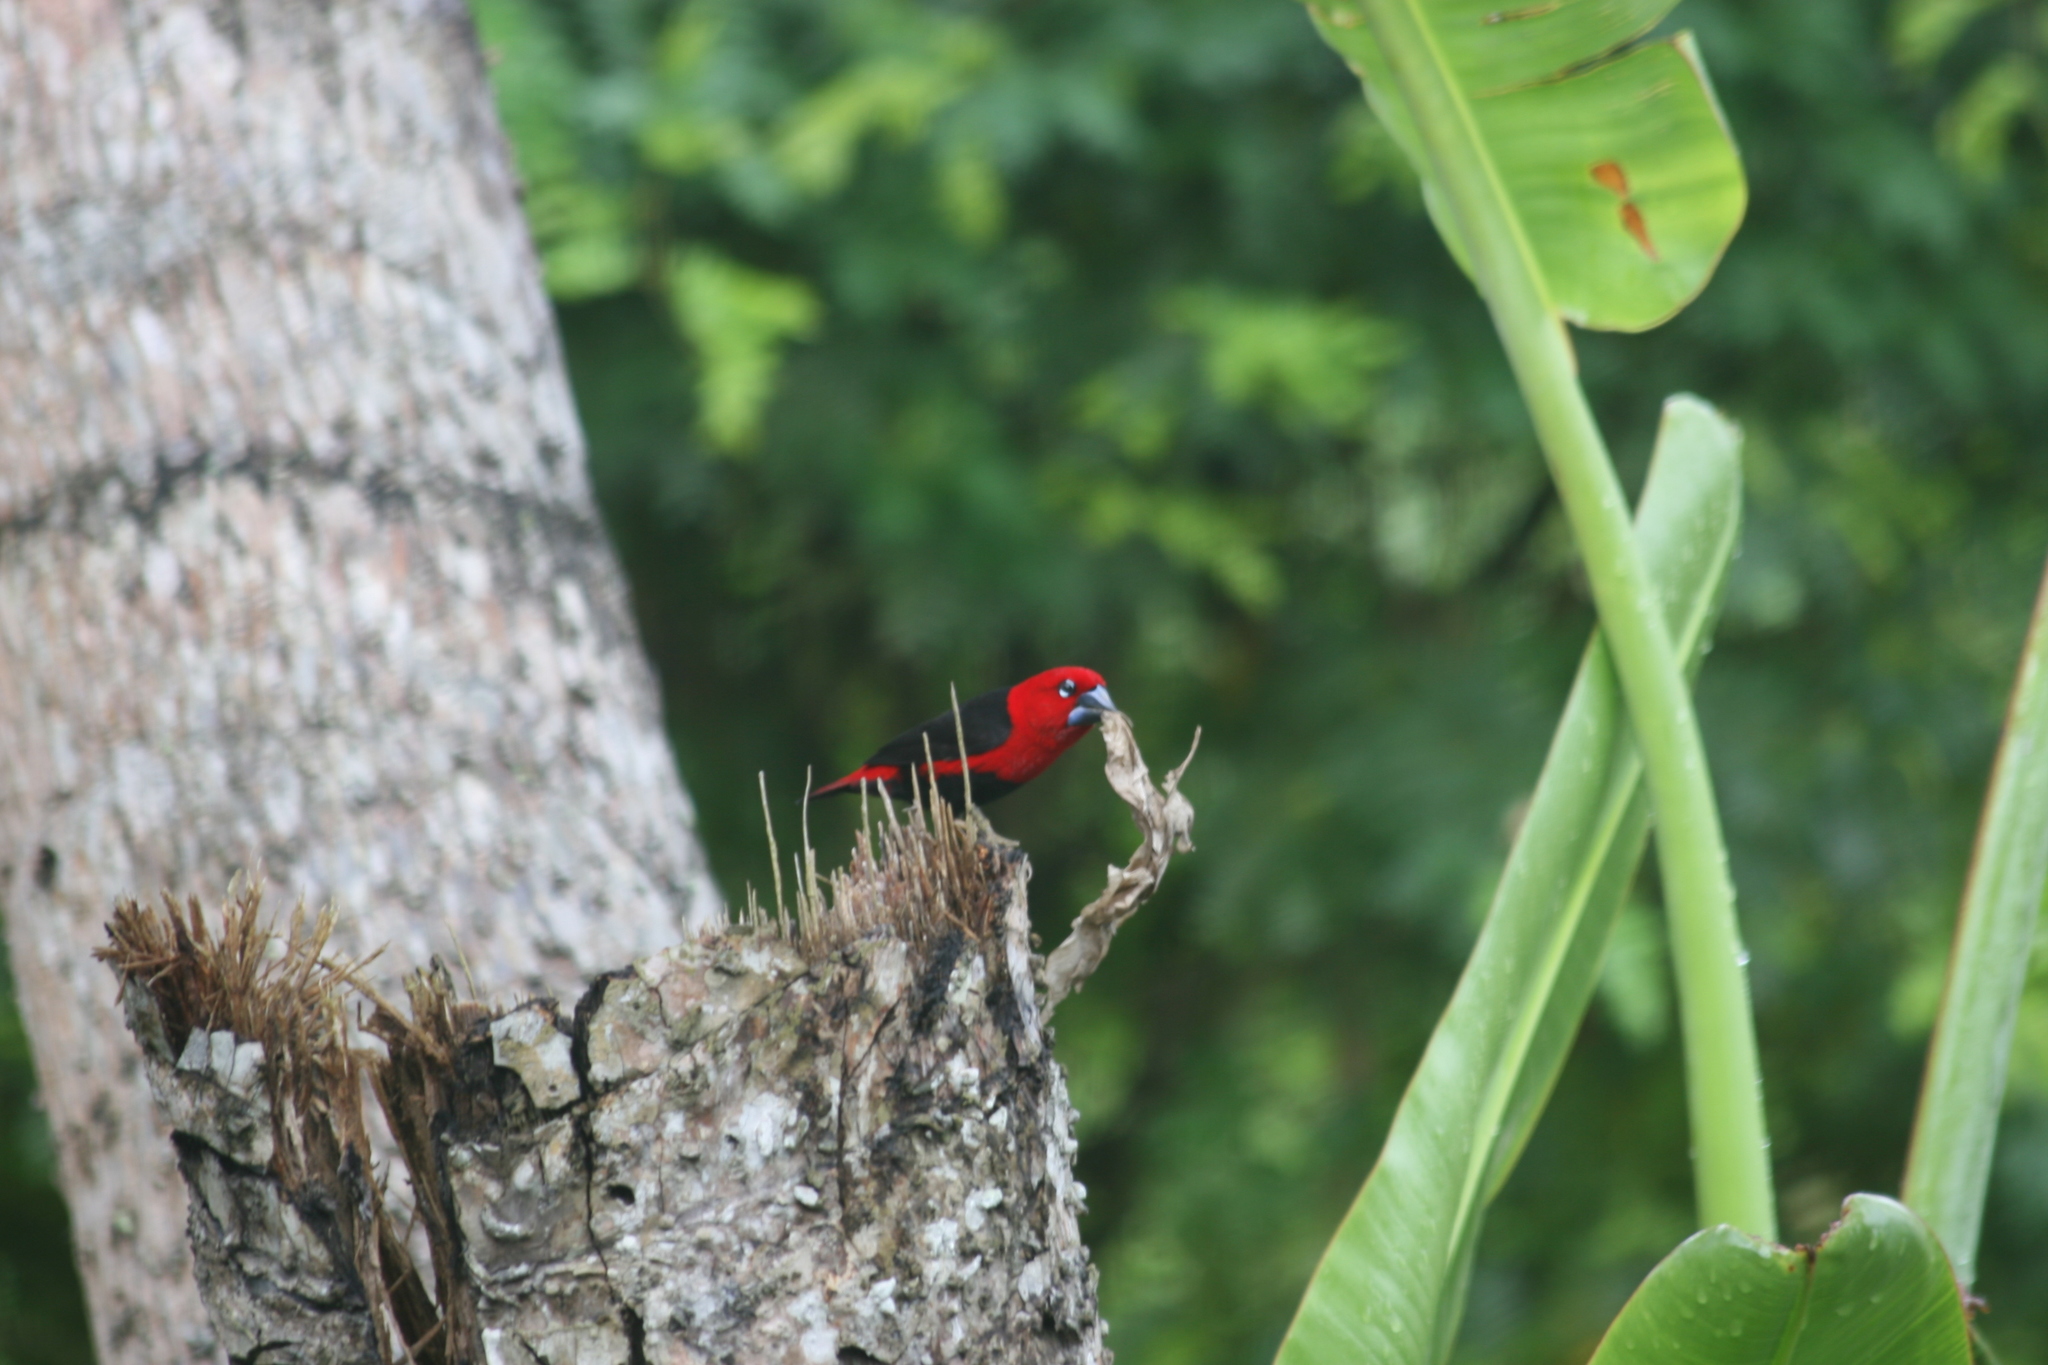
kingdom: Animalia
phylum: Chordata
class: Aves
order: Passeriformes
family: Estrildidae
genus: Pyrenestes
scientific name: Pyrenestes ostrinus
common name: Black-bellied seedcracker
